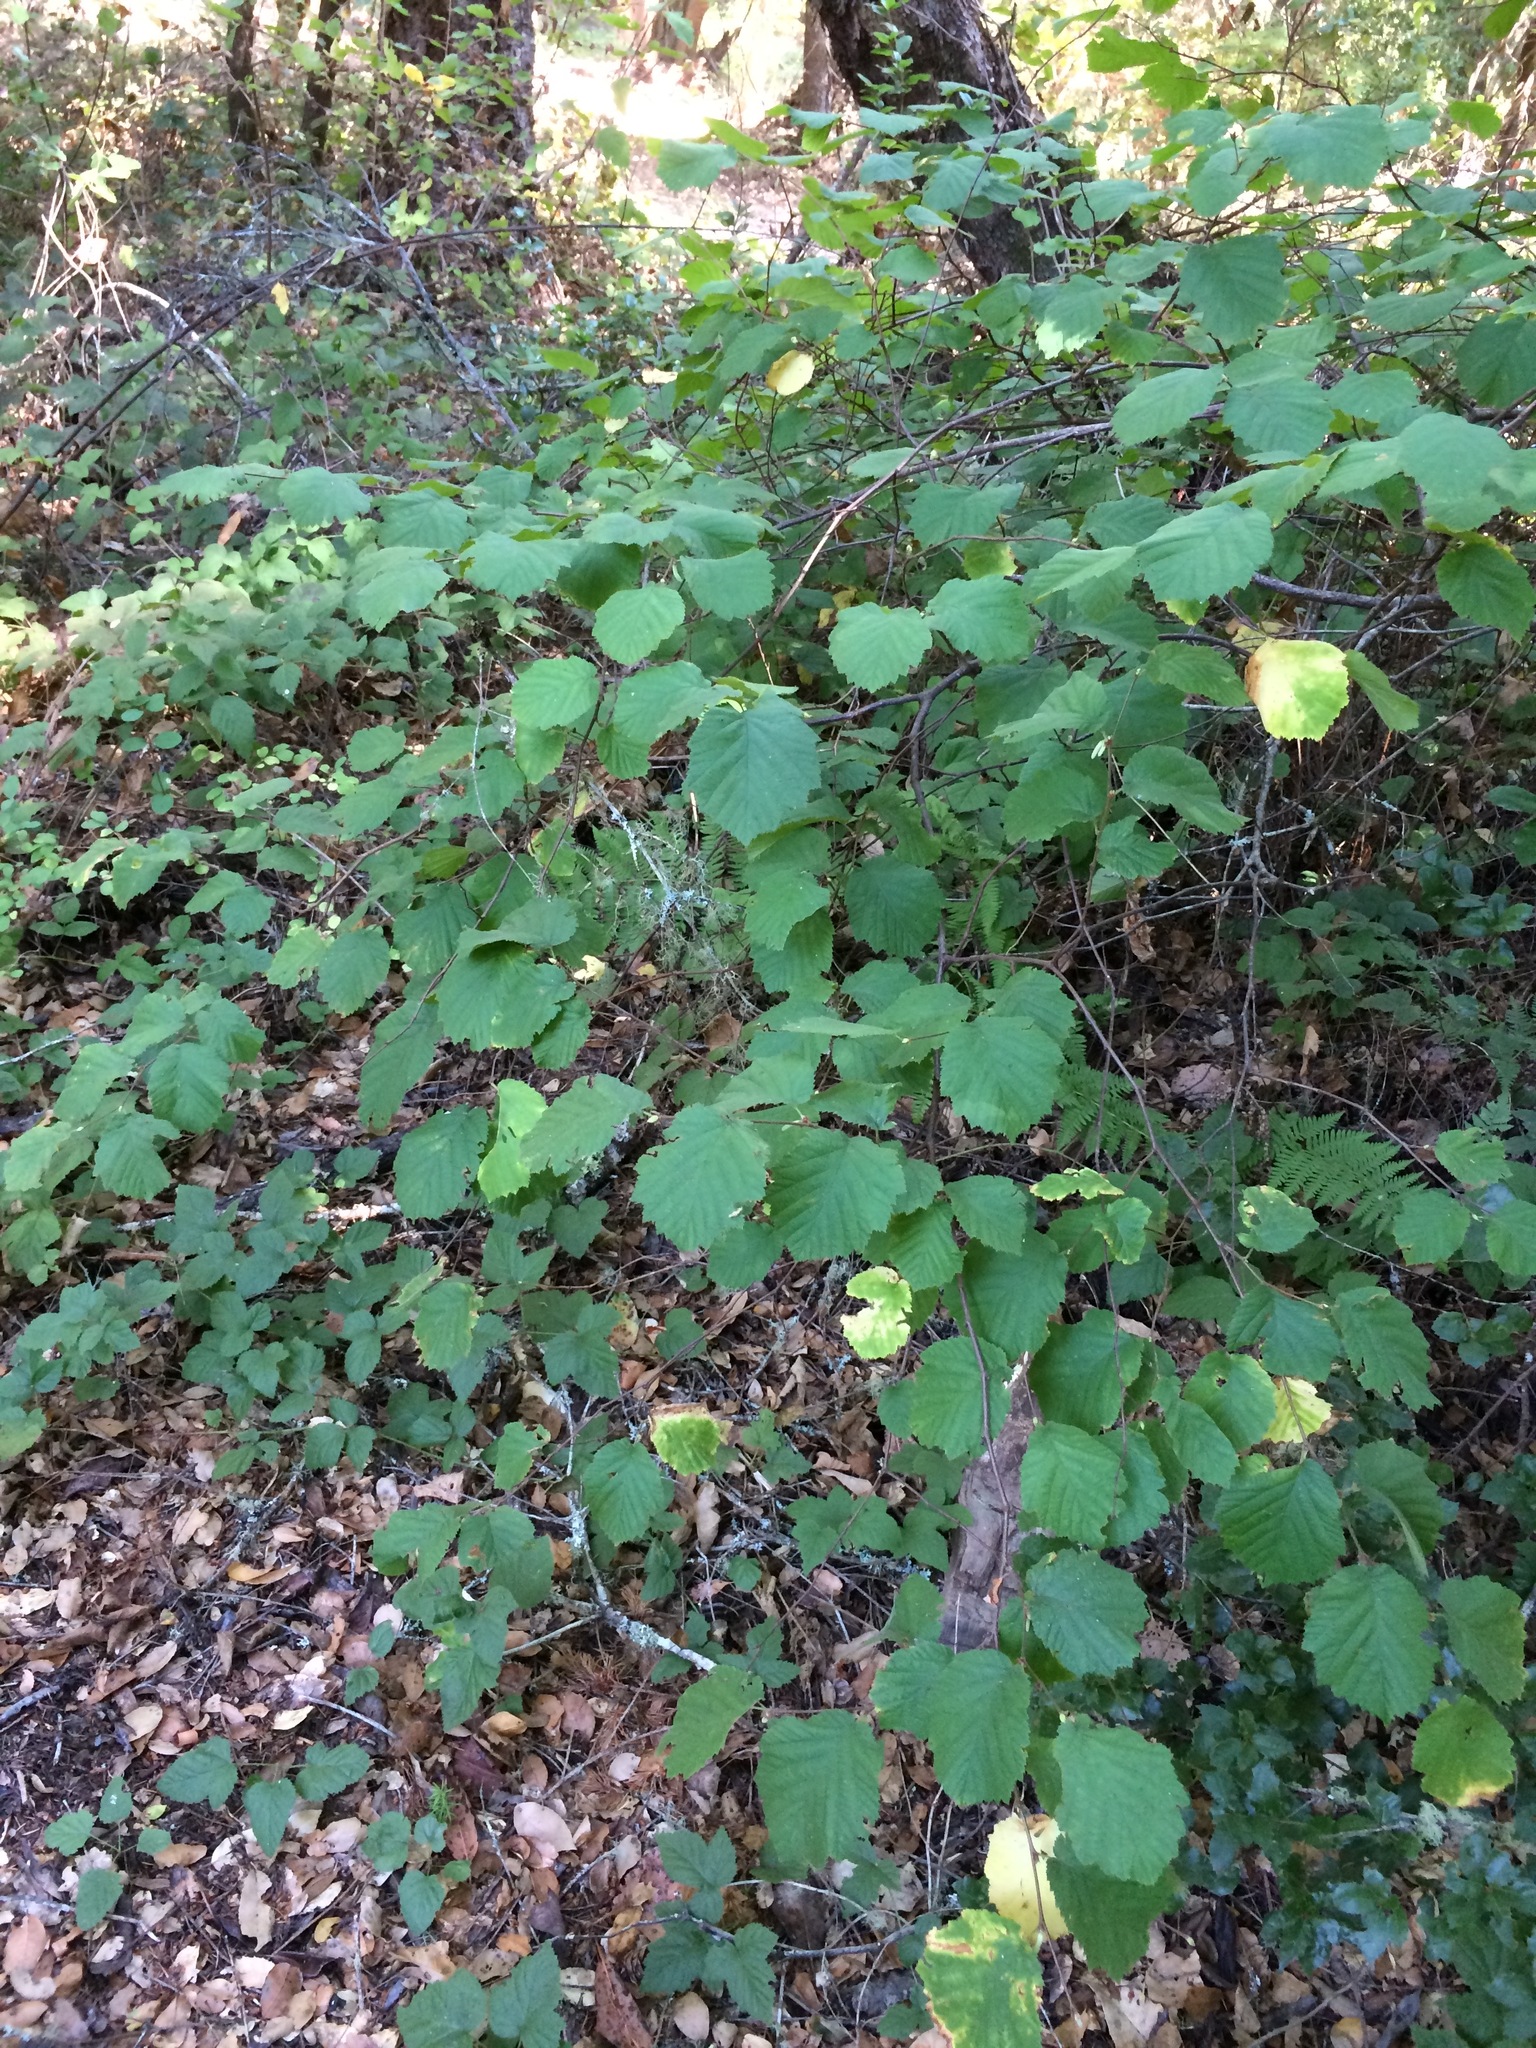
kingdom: Plantae
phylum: Tracheophyta
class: Magnoliopsida
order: Fagales
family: Betulaceae
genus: Corylus
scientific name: Corylus cornuta
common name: Beaked hazel
